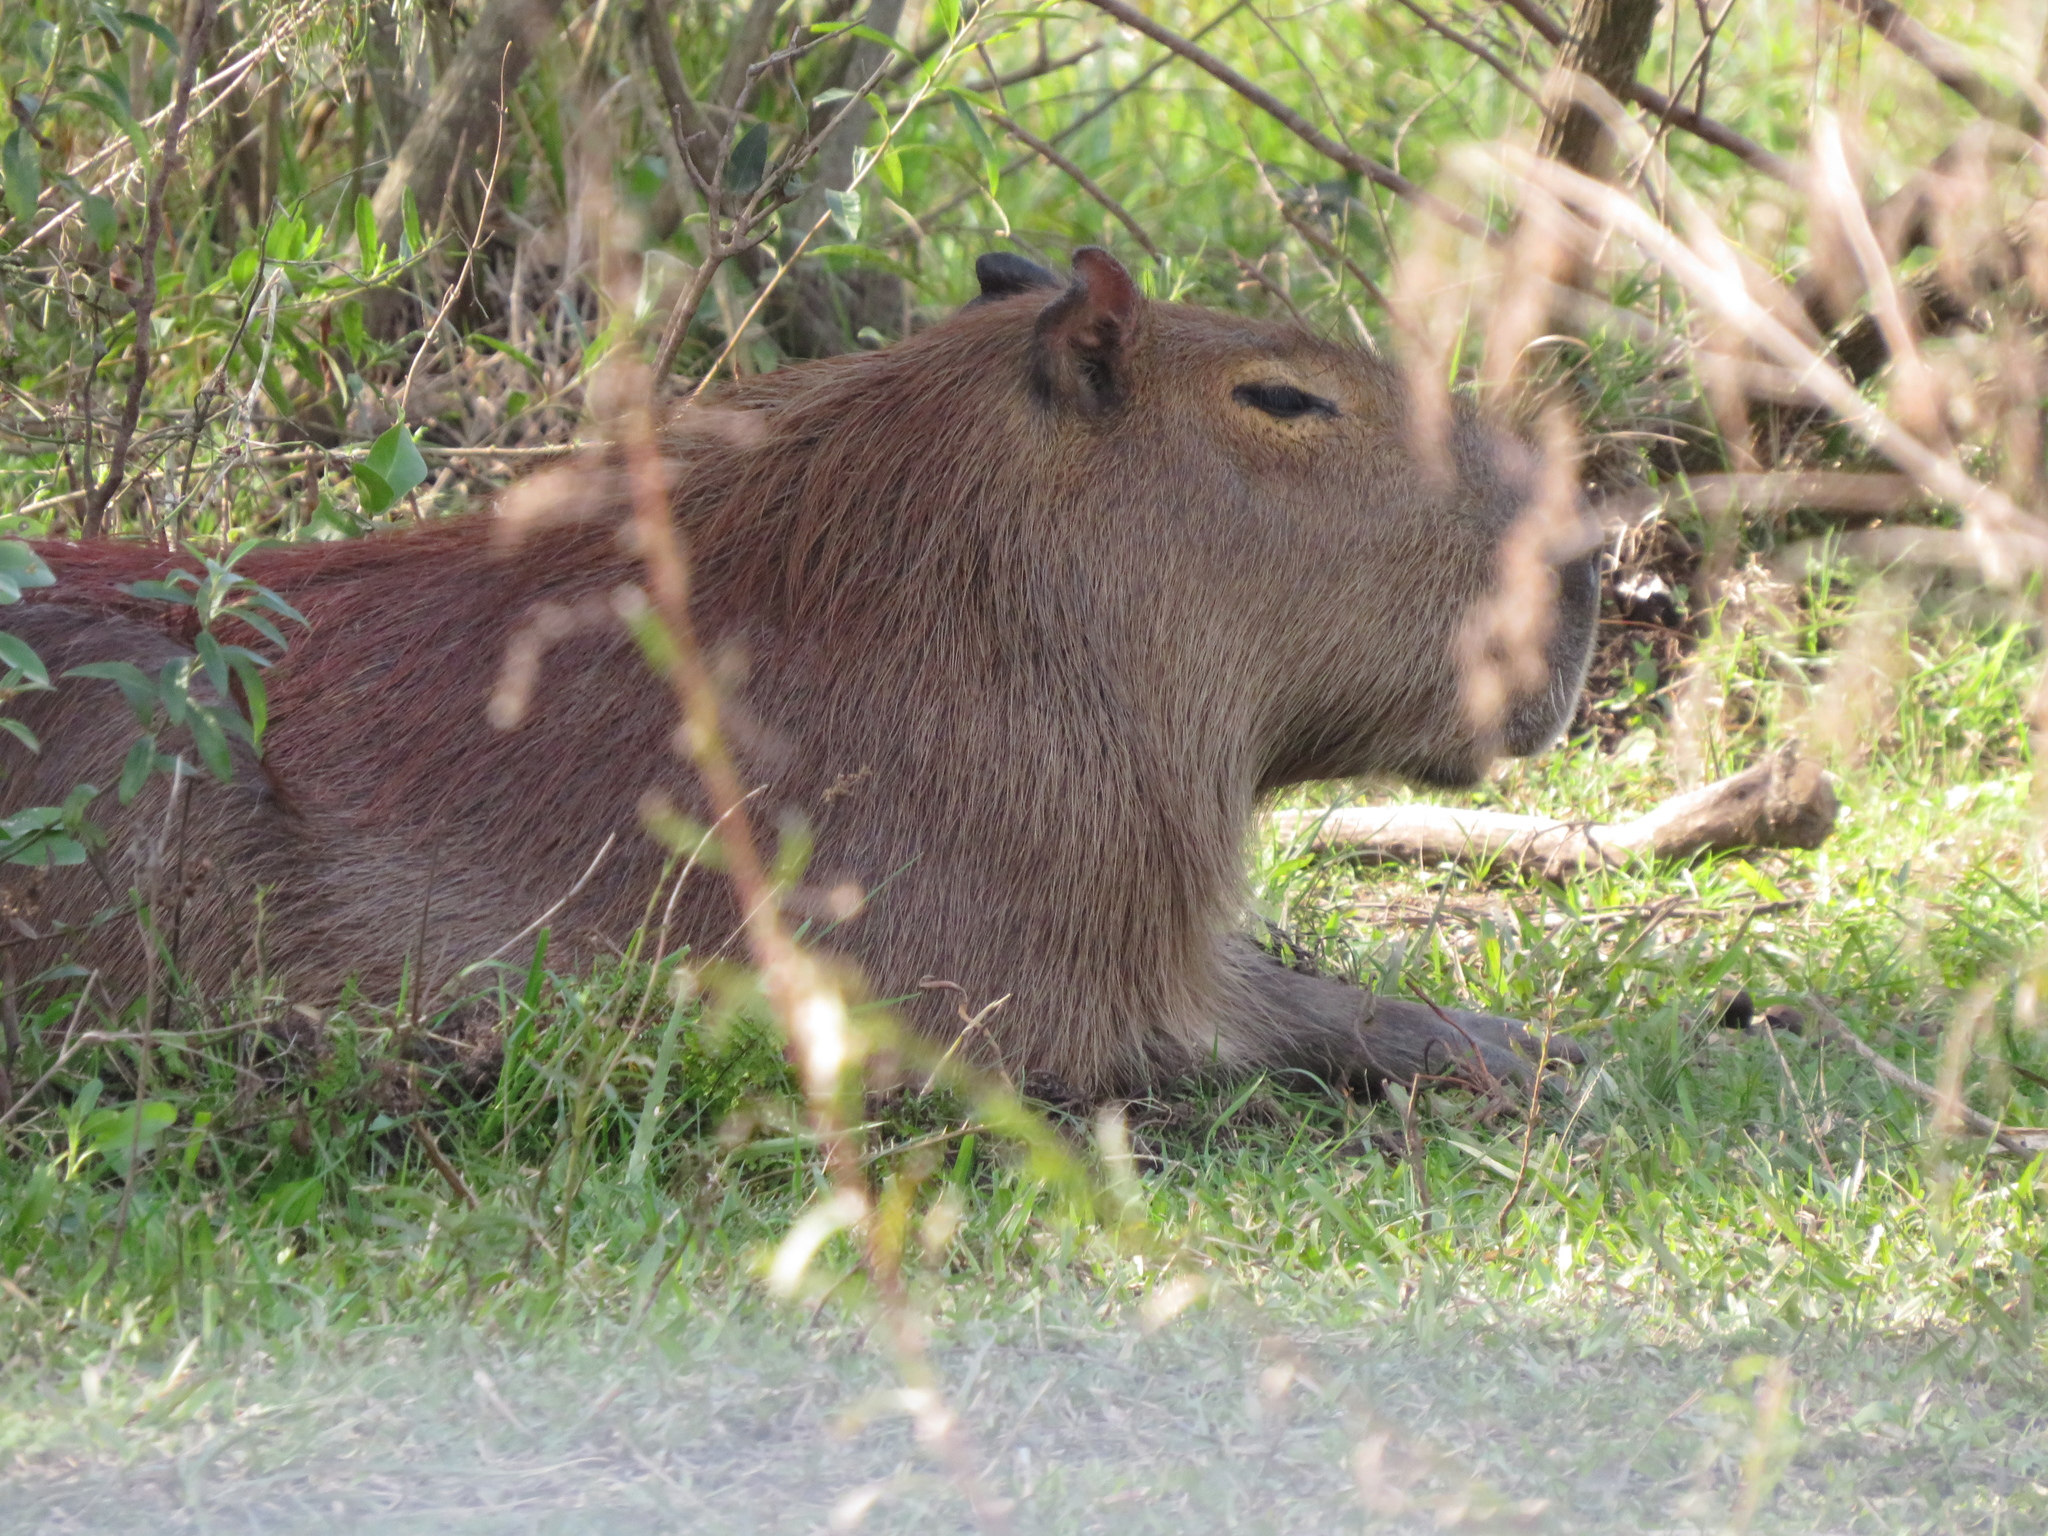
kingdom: Animalia
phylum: Chordata
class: Mammalia
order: Rodentia
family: Caviidae
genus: Hydrochoerus
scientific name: Hydrochoerus hydrochaeris
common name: Capybara
